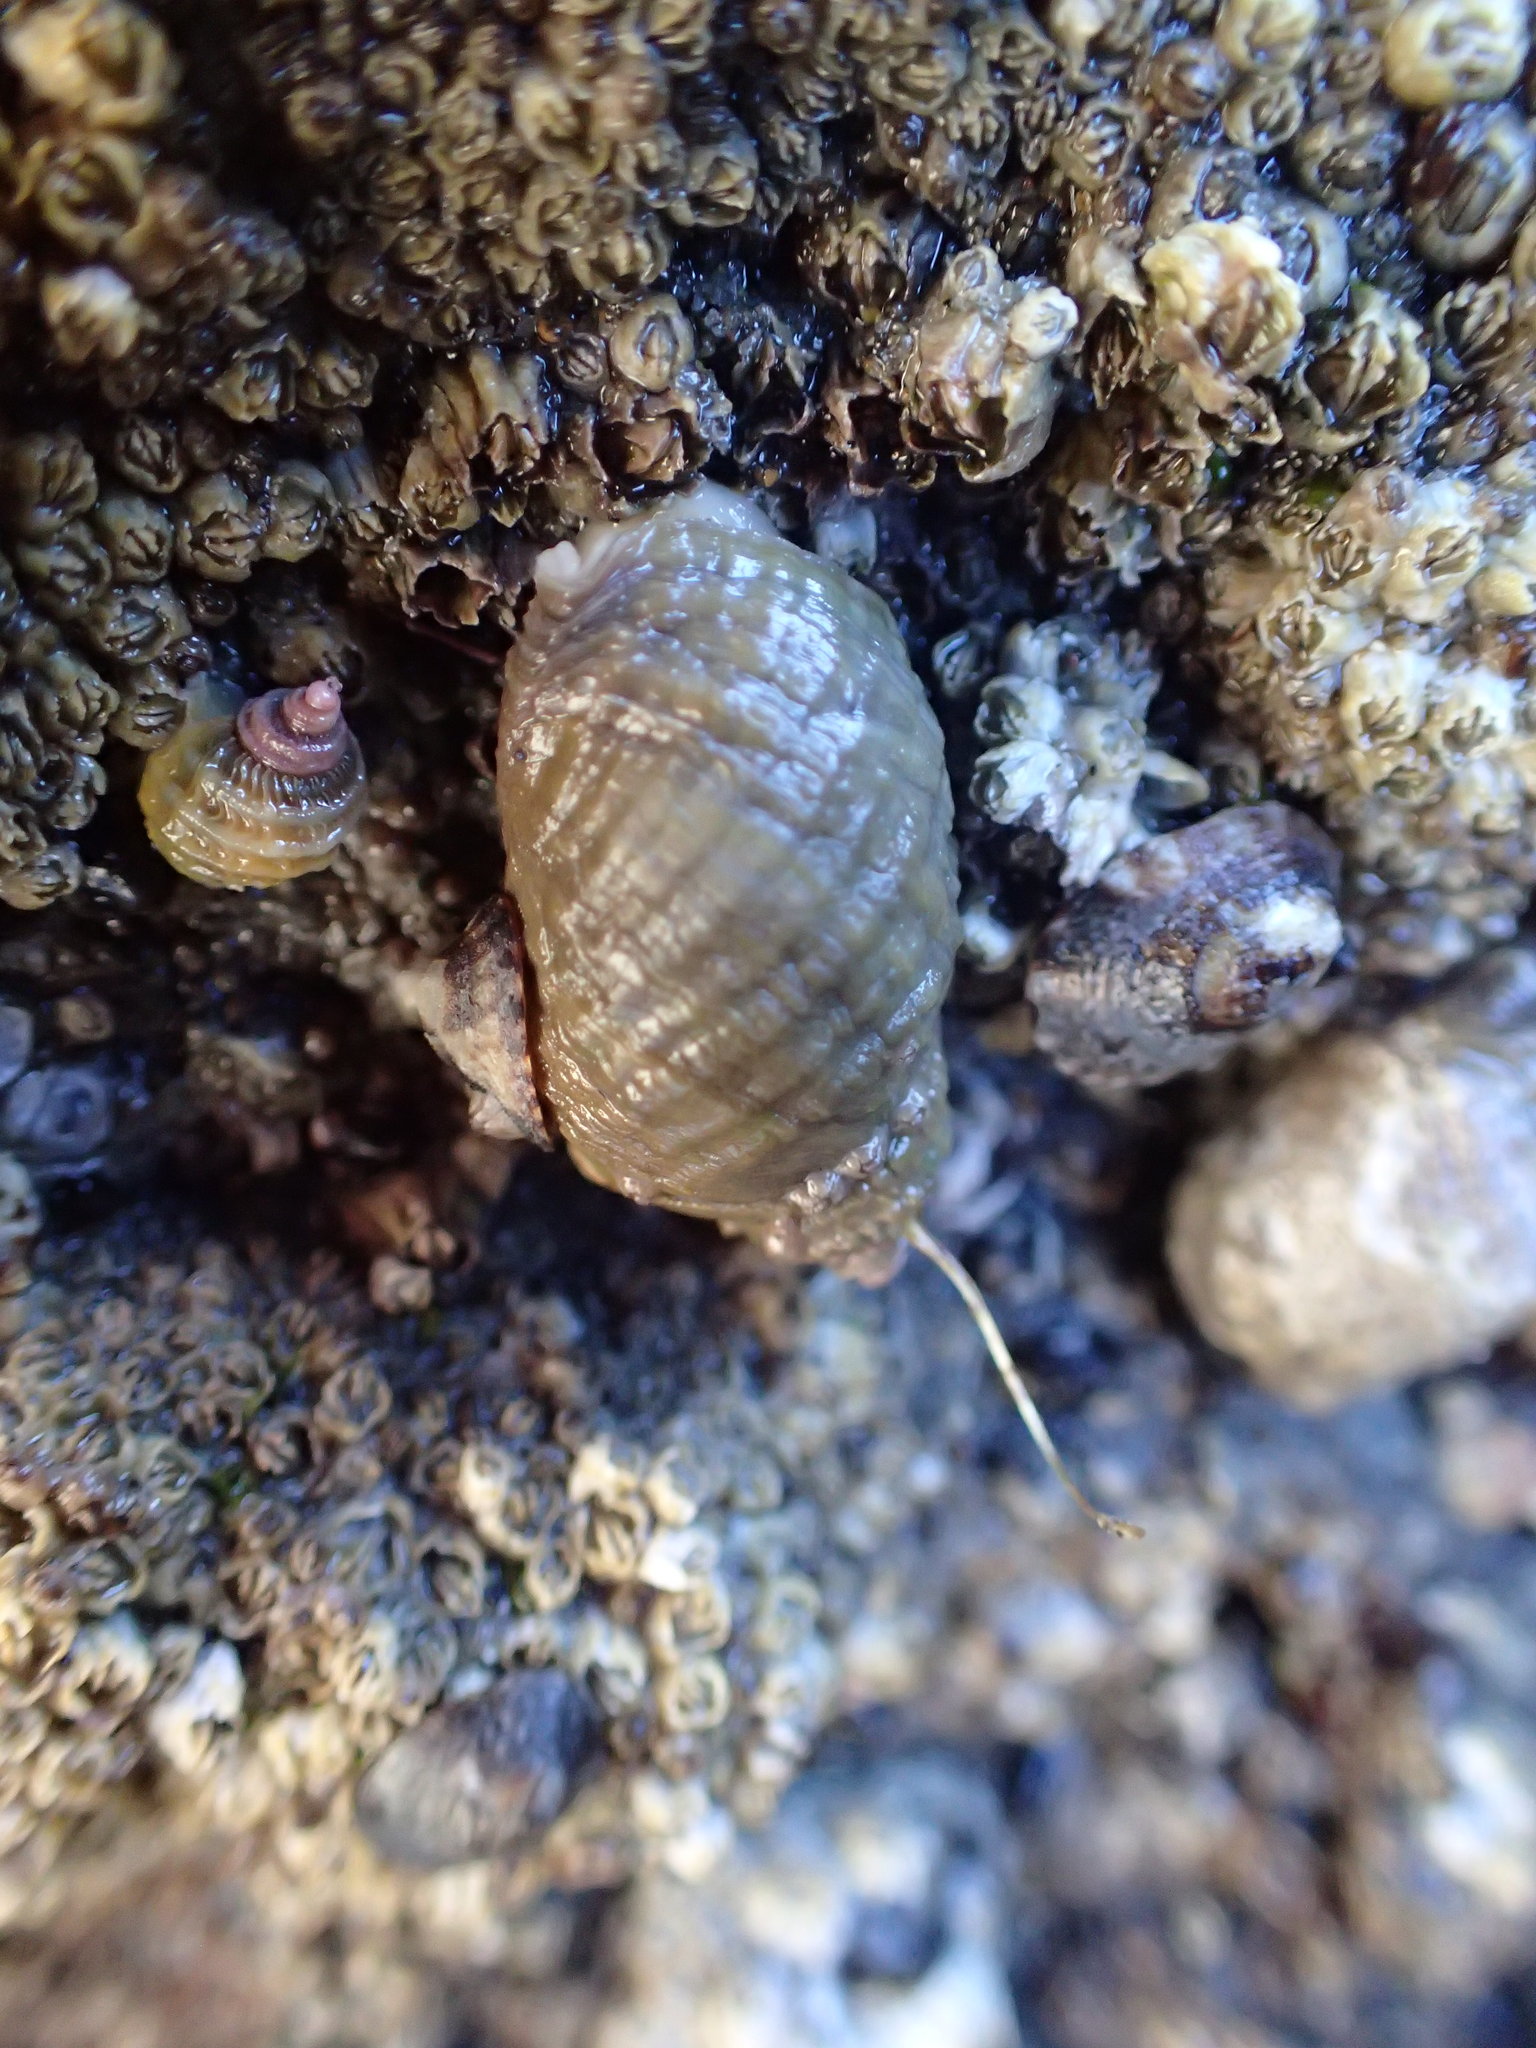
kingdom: Animalia
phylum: Mollusca
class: Gastropoda
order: Neogastropoda
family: Muricidae
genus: Nucella
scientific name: Nucella ostrina
